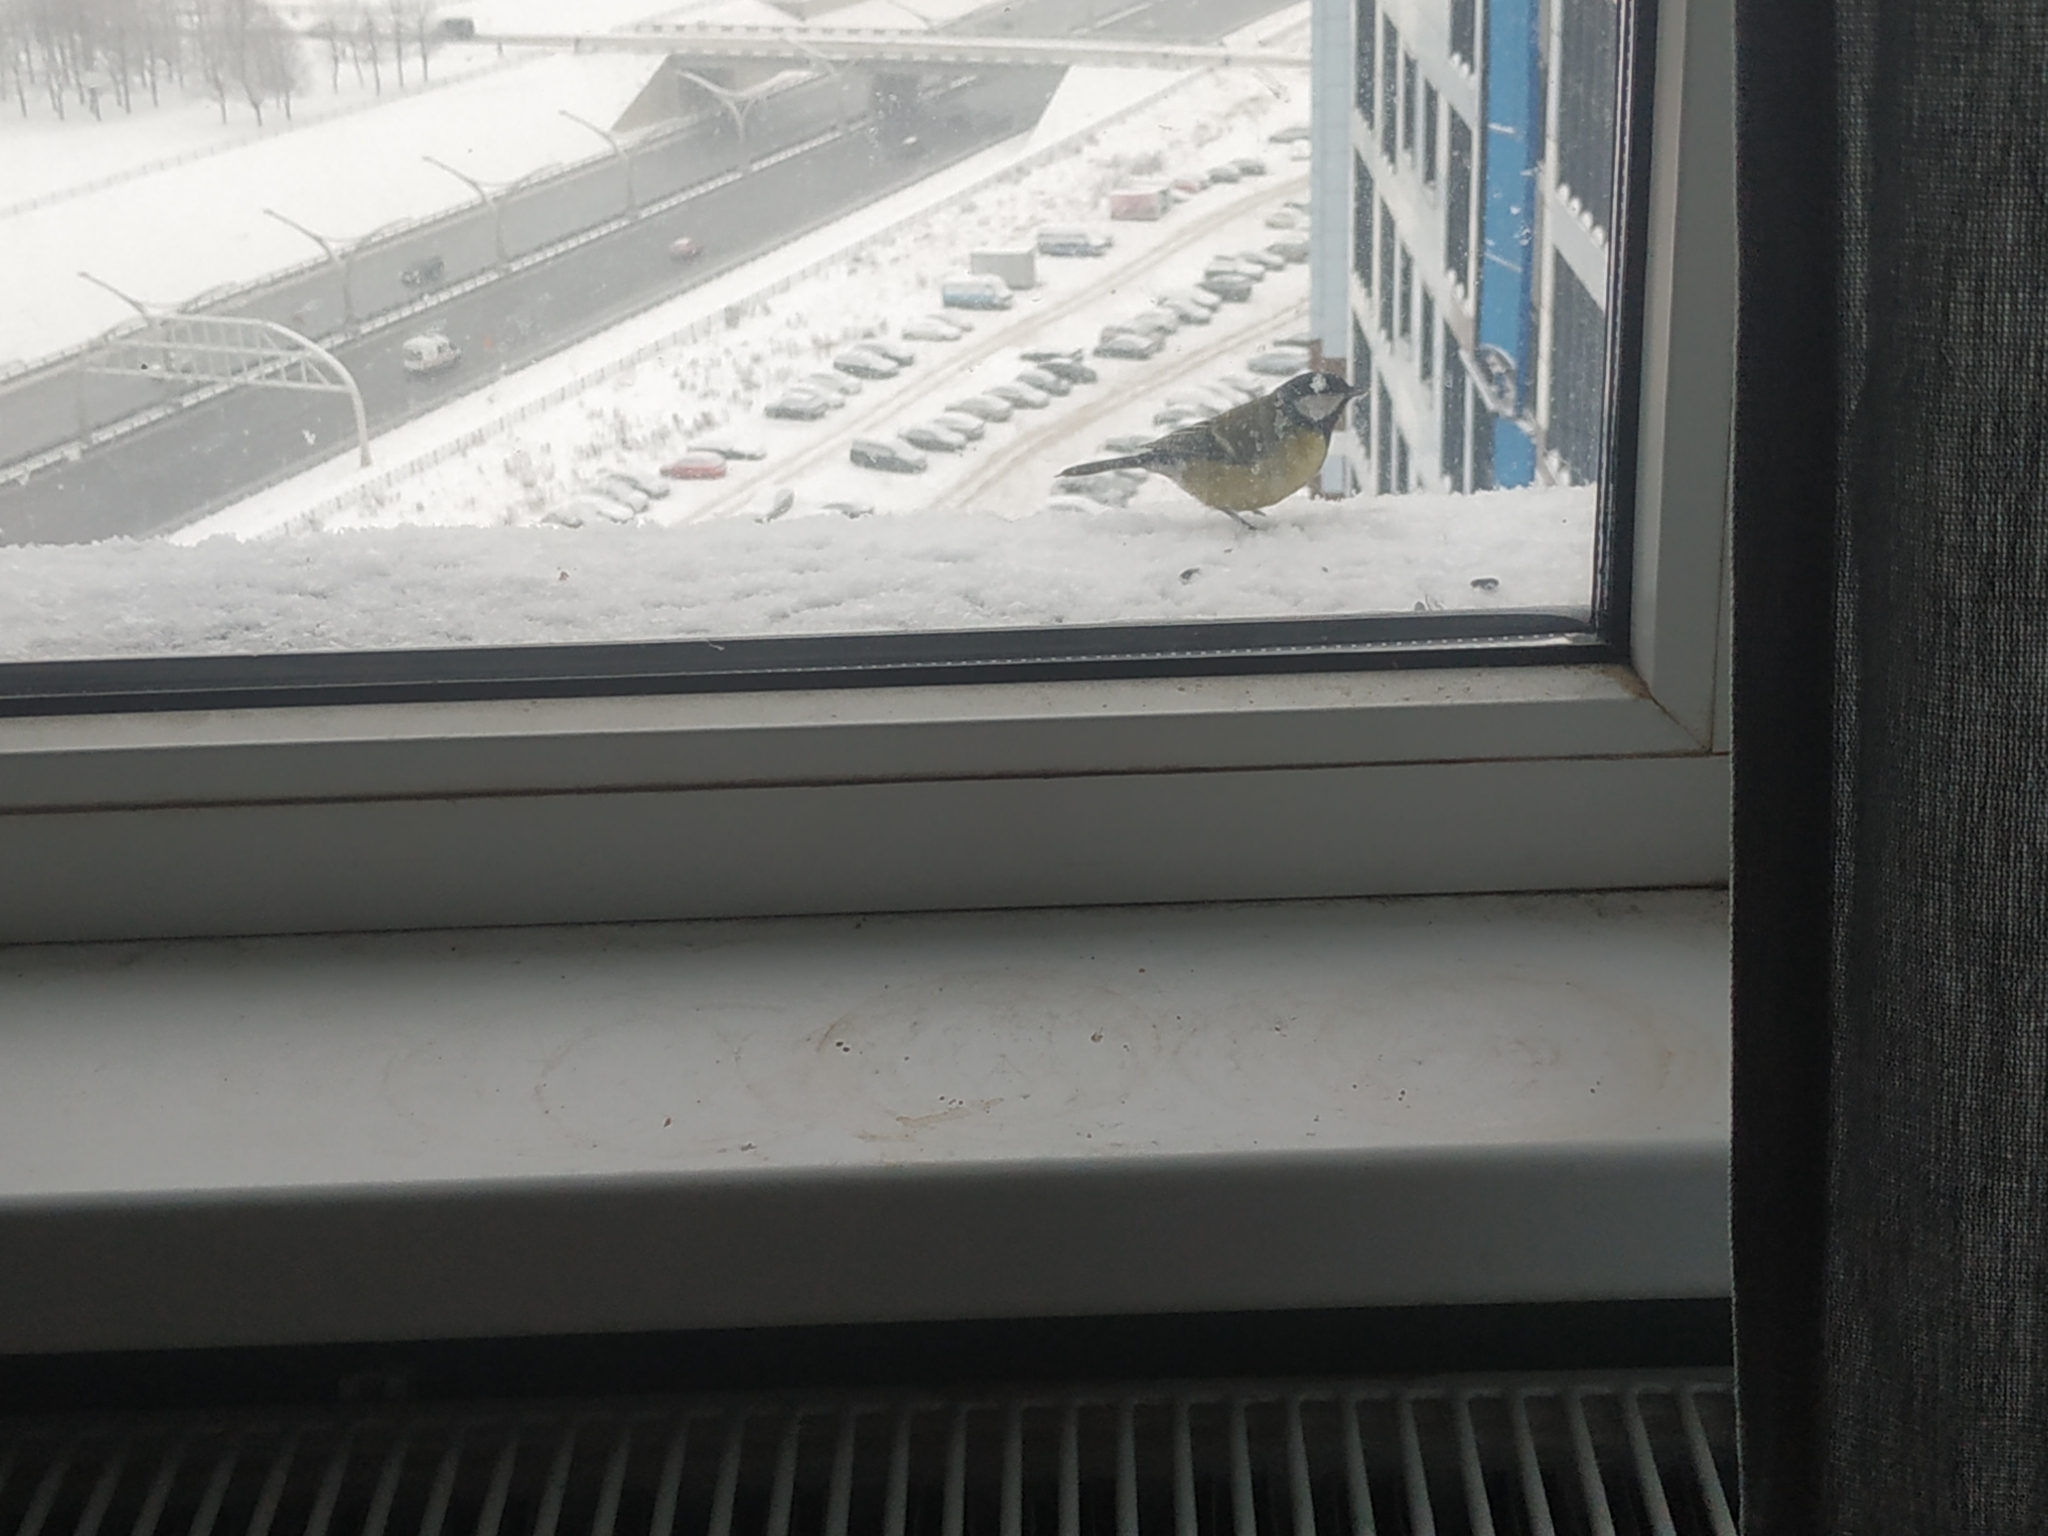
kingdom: Animalia
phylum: Chordata
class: Aves
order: Passeriformes
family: Paridae
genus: Parus
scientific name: Parus major
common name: Great tit
